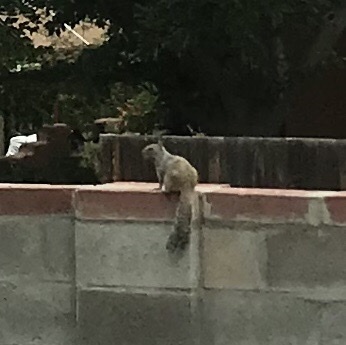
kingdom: Animalia
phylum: Chordata
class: Mammalia
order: Rodentia
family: Sciuridae
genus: Otospermophilus
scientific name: Otospermophilus variegatus
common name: Rock squirrel
